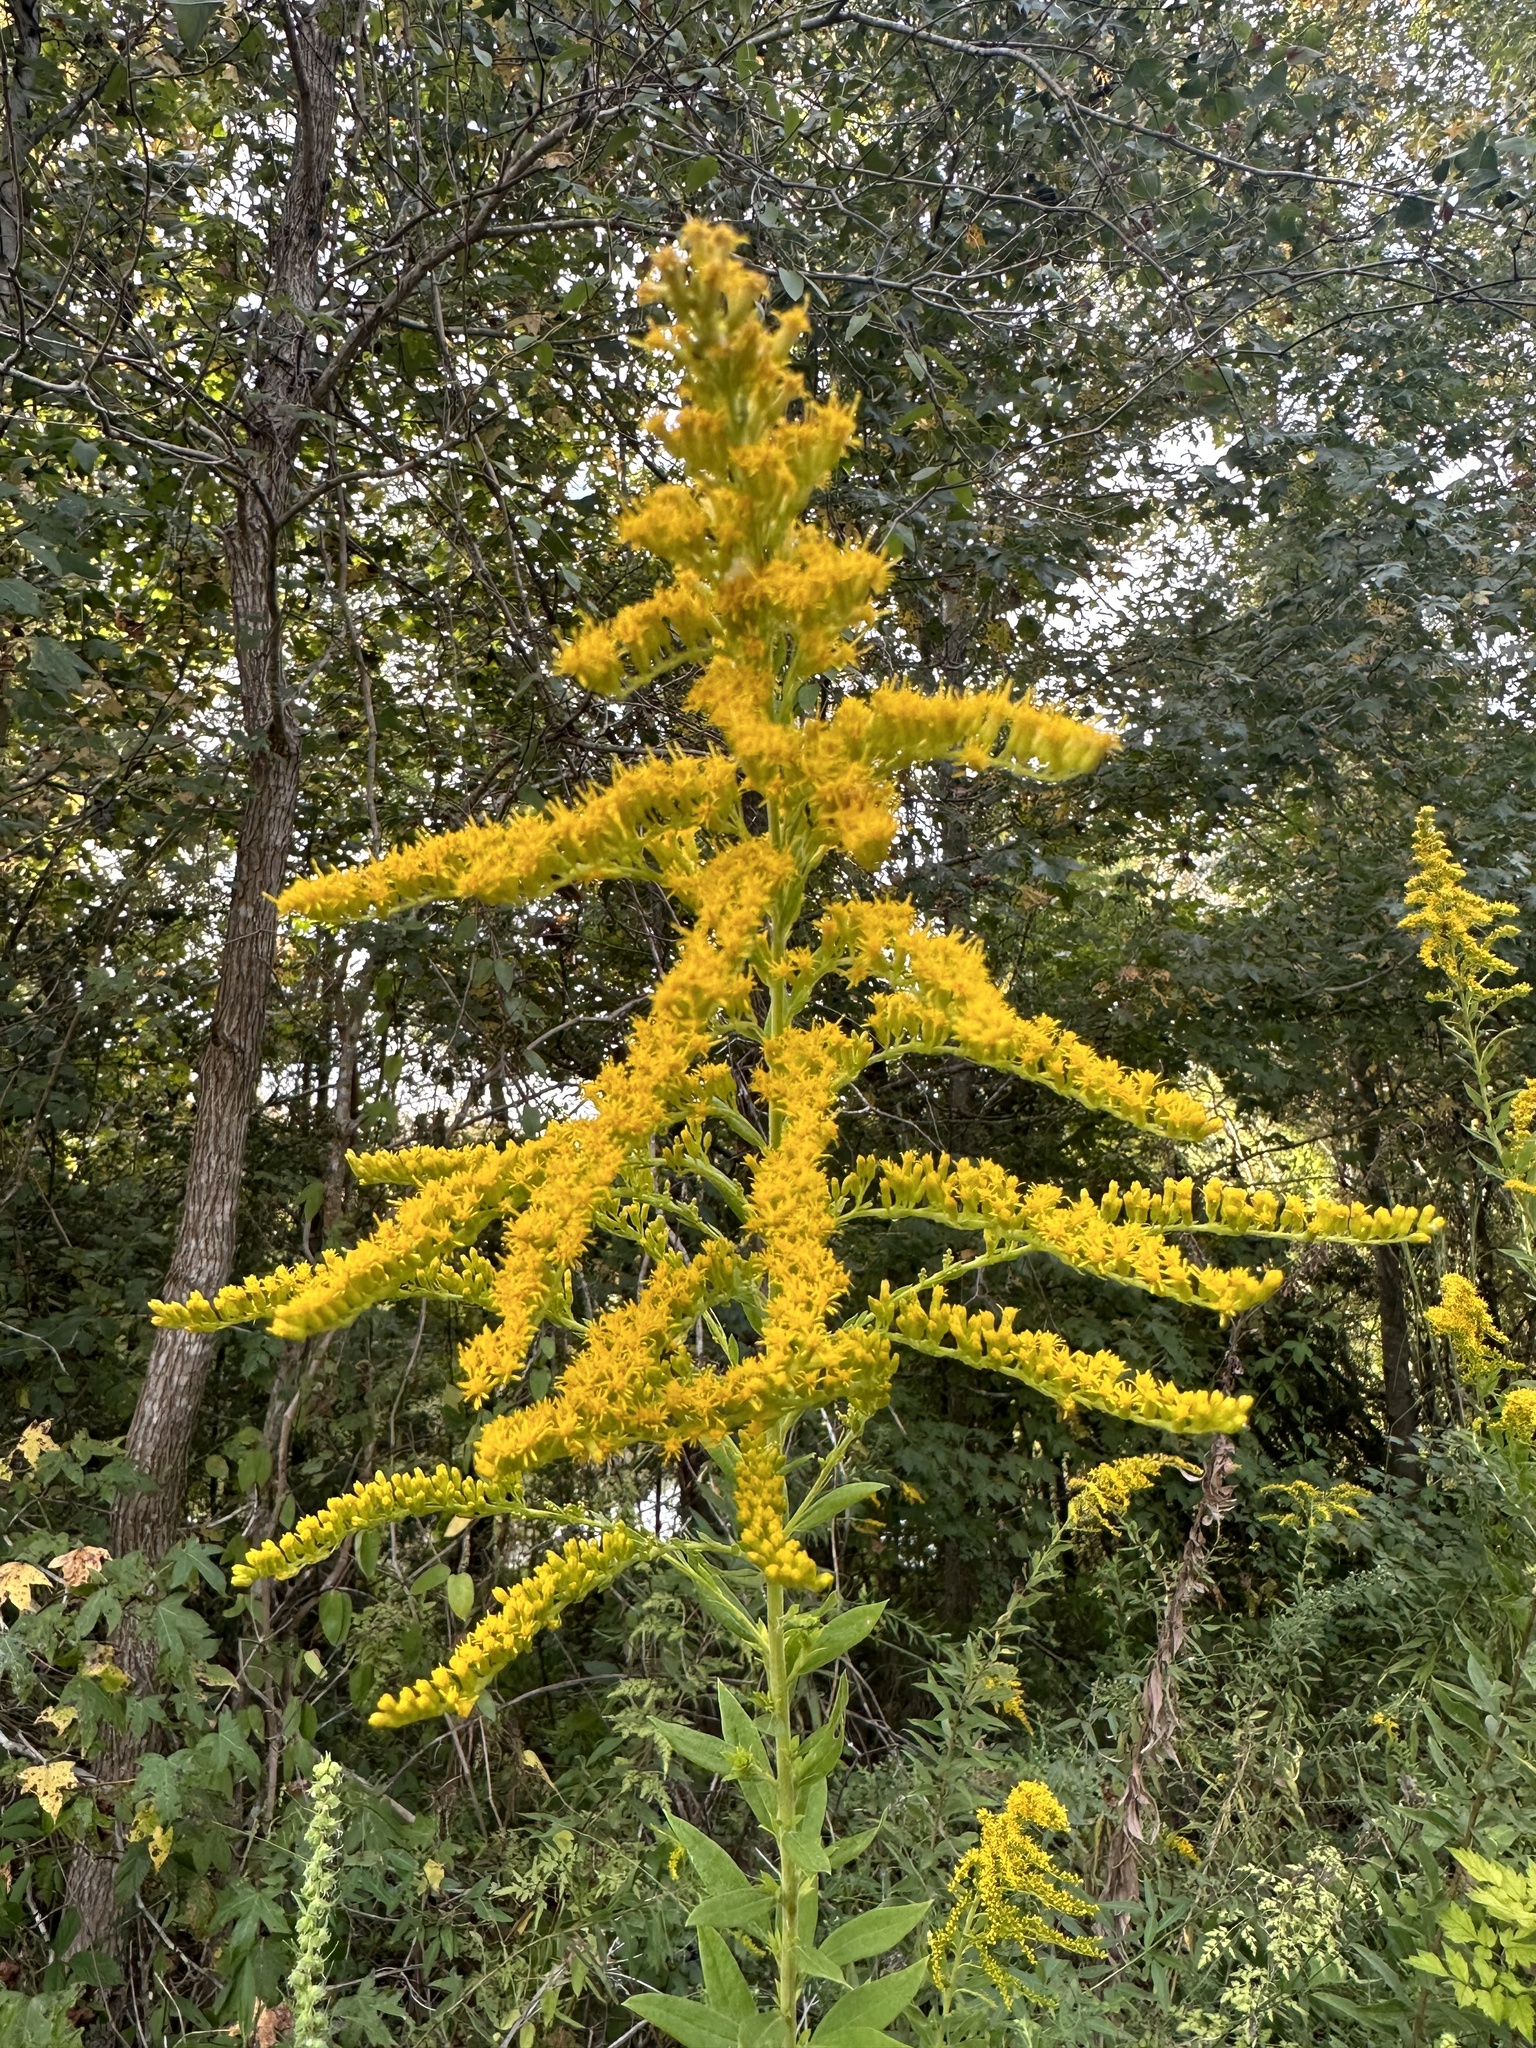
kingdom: Plantae
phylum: Tracheophyta
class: Magnoliopsida
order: Asterales
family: Asteraceae
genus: Solidago
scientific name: Solidago altissima
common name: Late goldenrod
